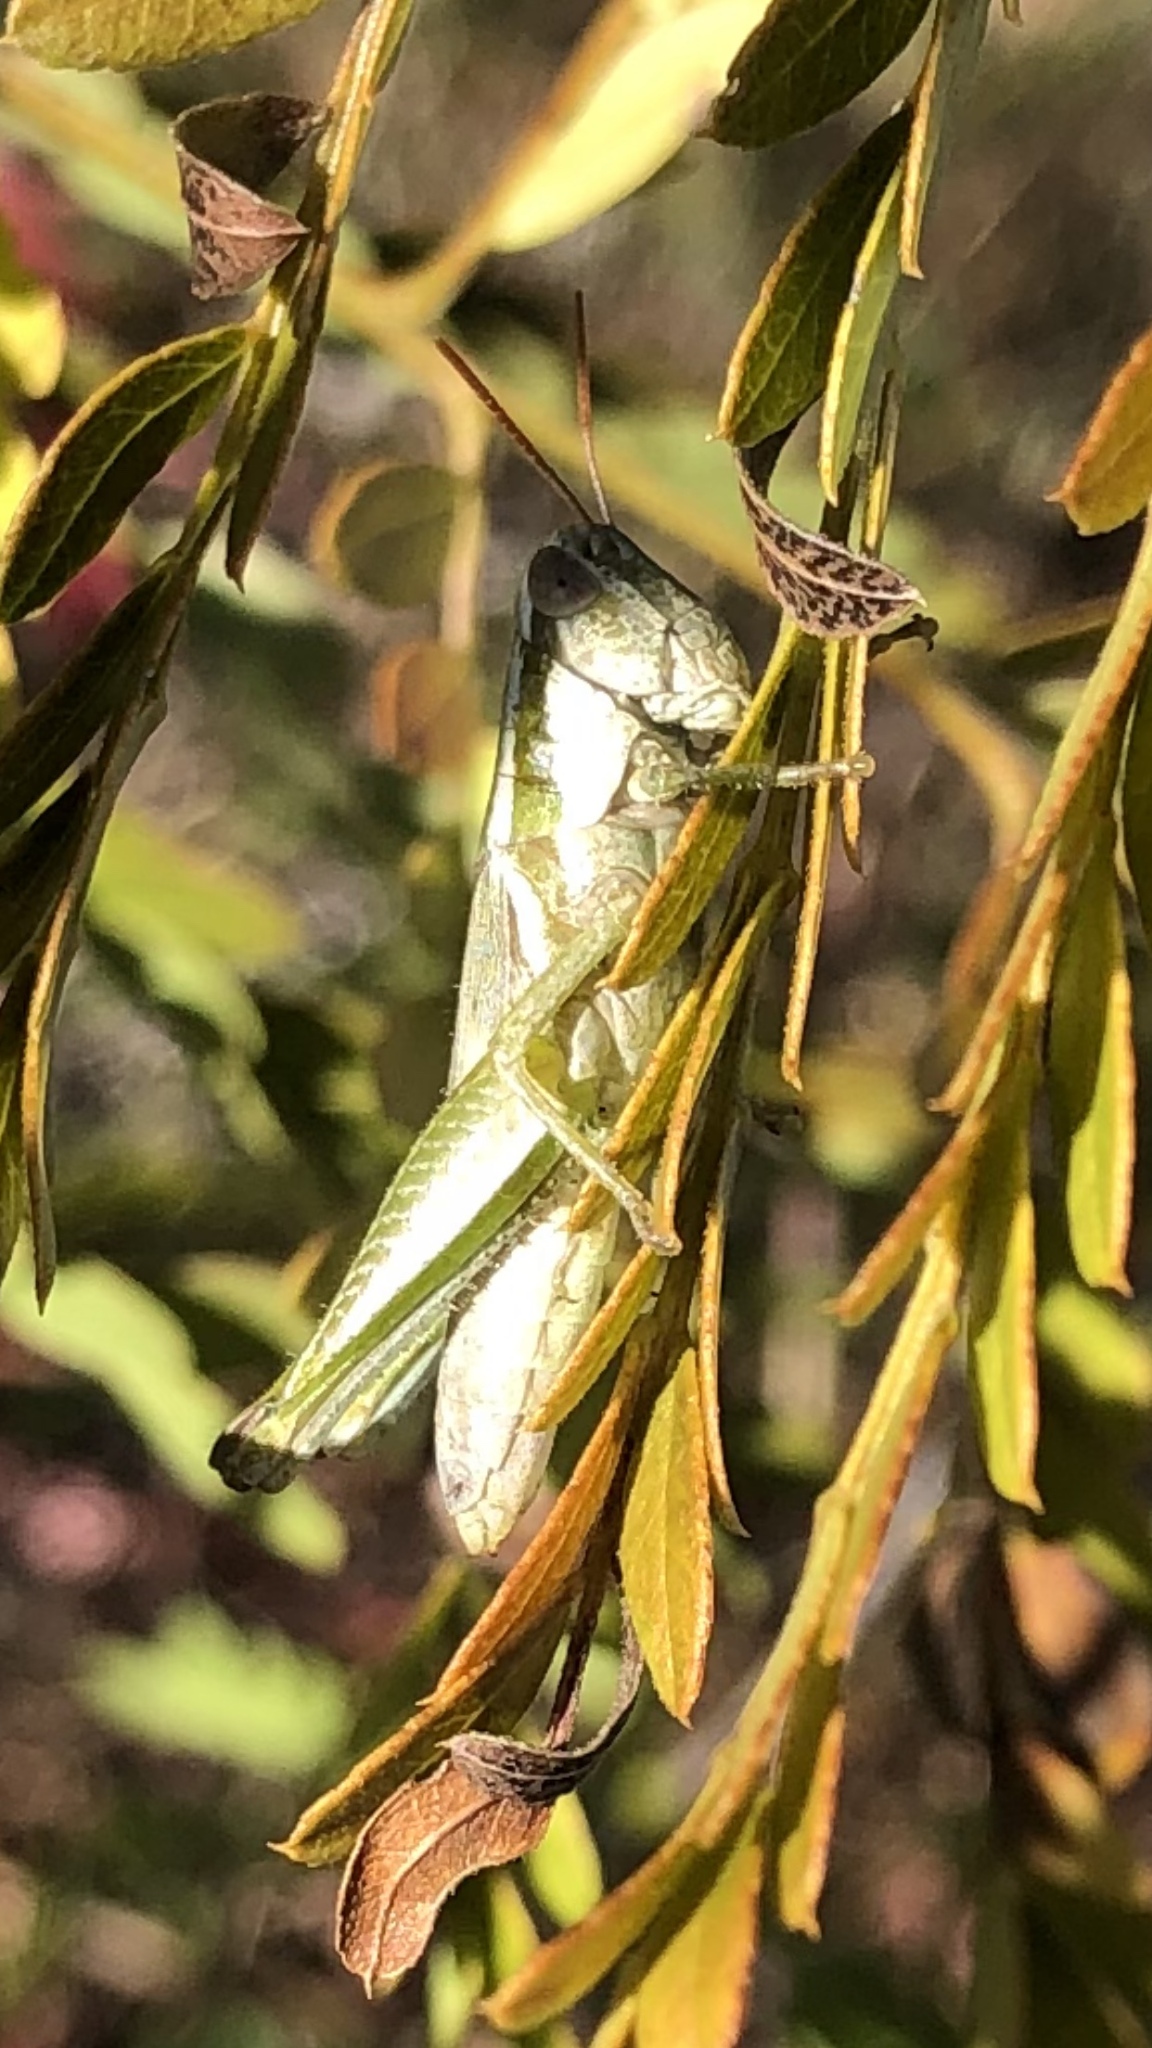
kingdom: Animalia
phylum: Arthropoda
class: Insecta
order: Orthoptera
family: Acrididae
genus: Hypochlora
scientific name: Hypochlora alba
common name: Cudweed grasshopper
